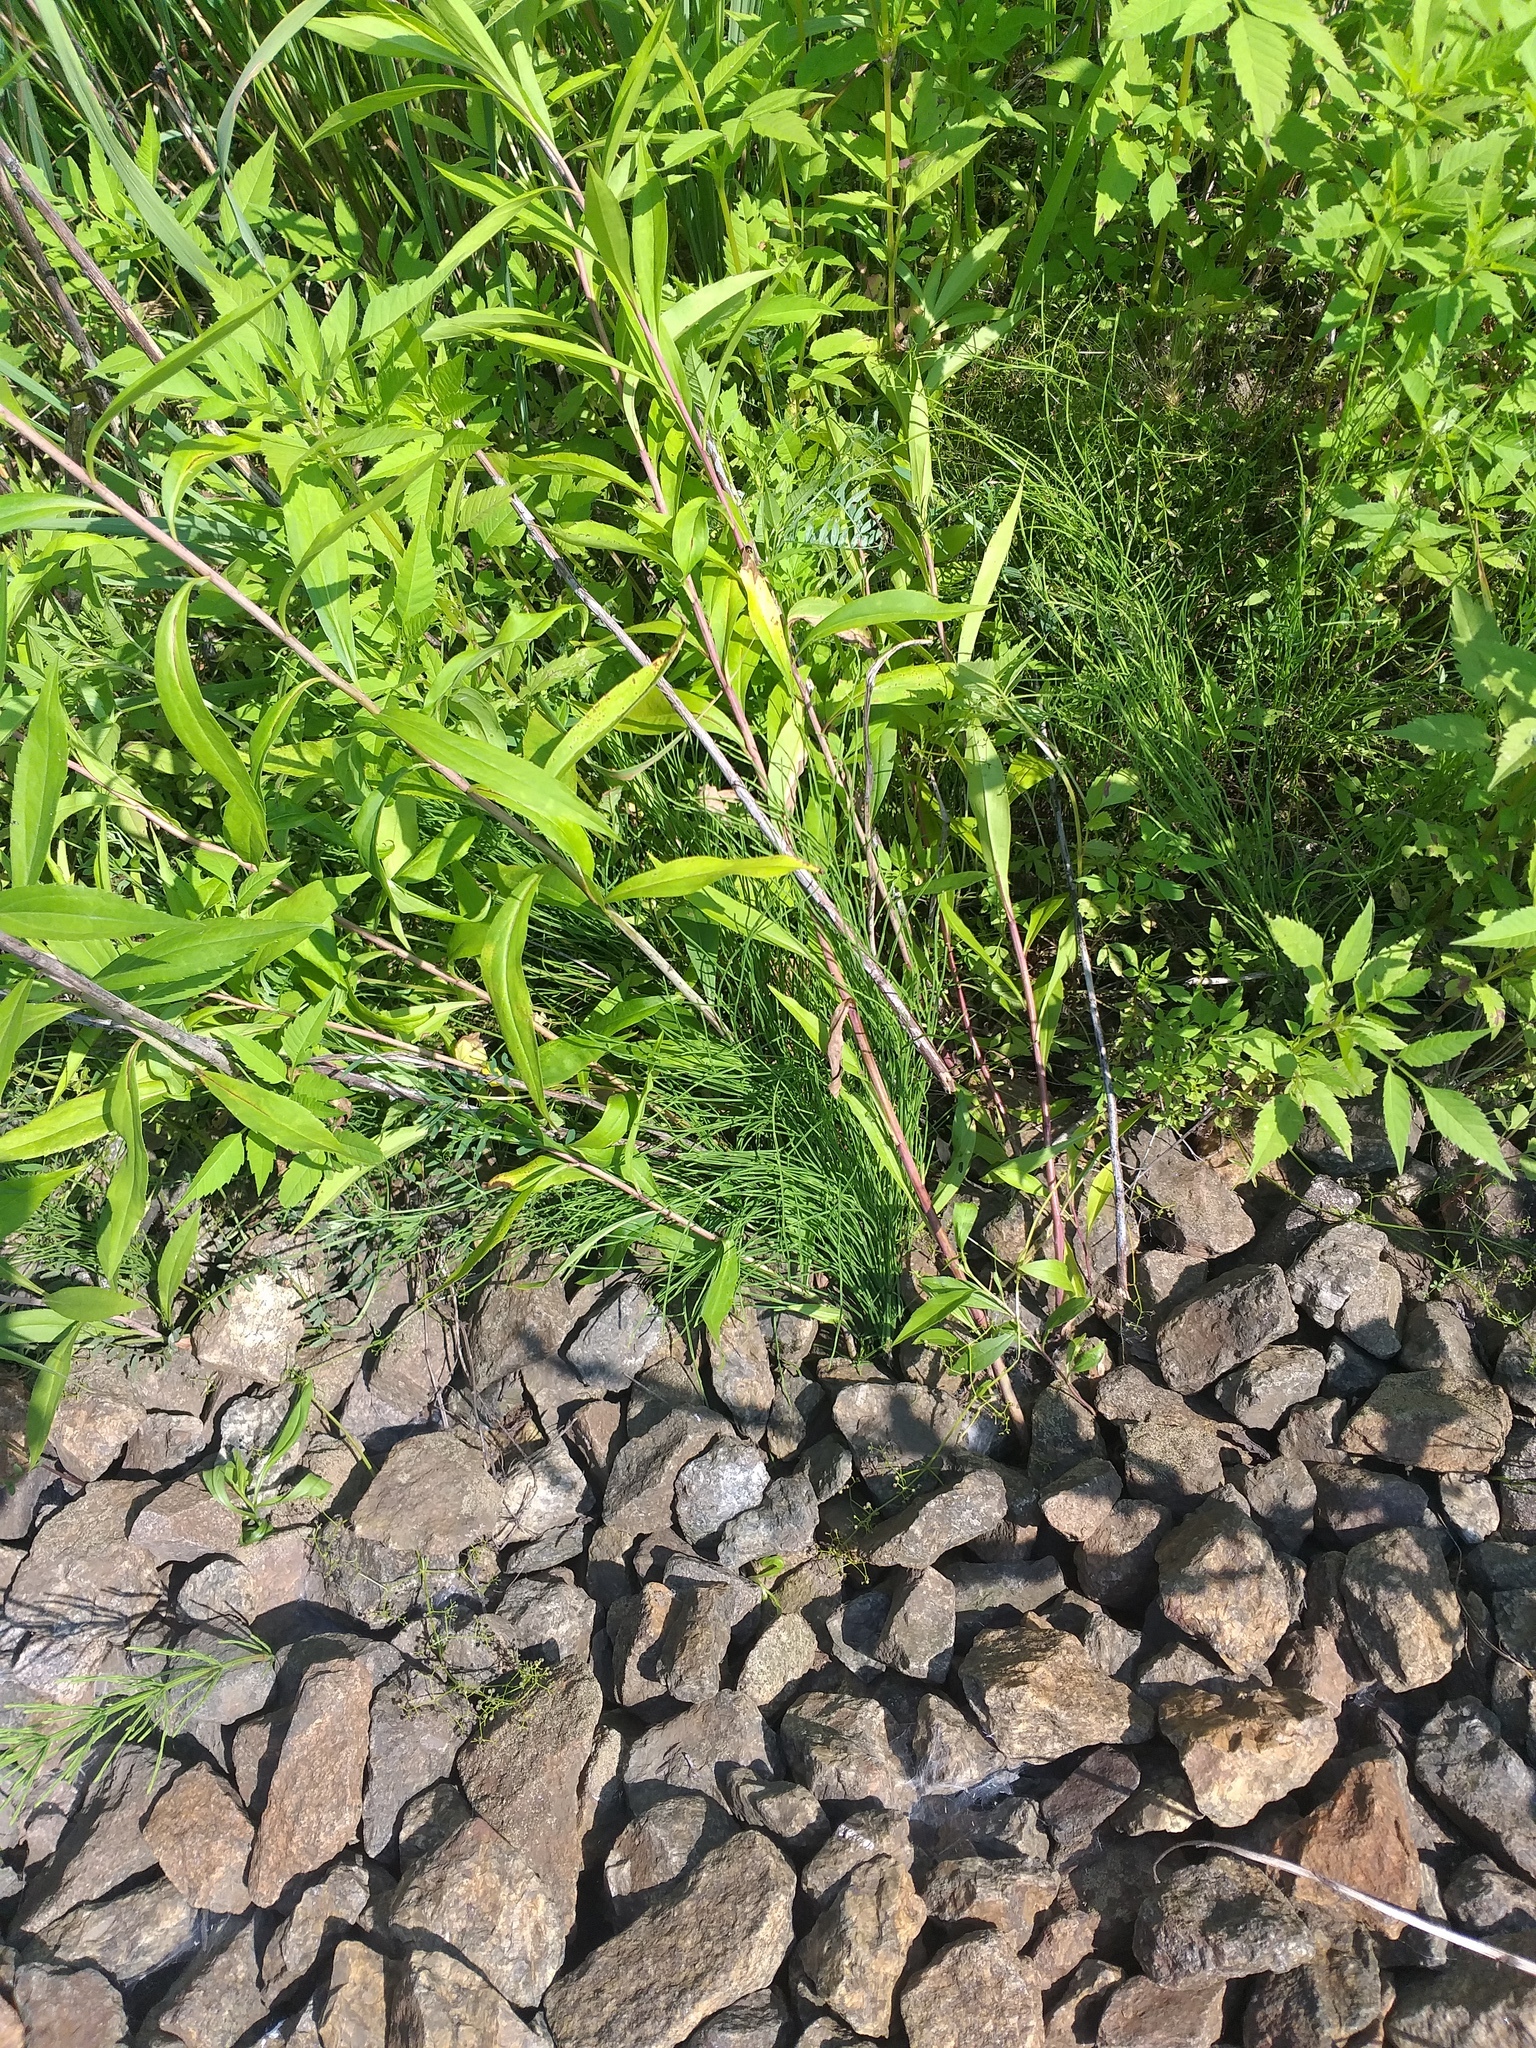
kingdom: Plantae
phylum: Tracheophyta
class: Magnoliopsida
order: Asterales
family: Asteraceae
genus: Solidago
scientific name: Solidago gigantea
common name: Giant goldenrod
